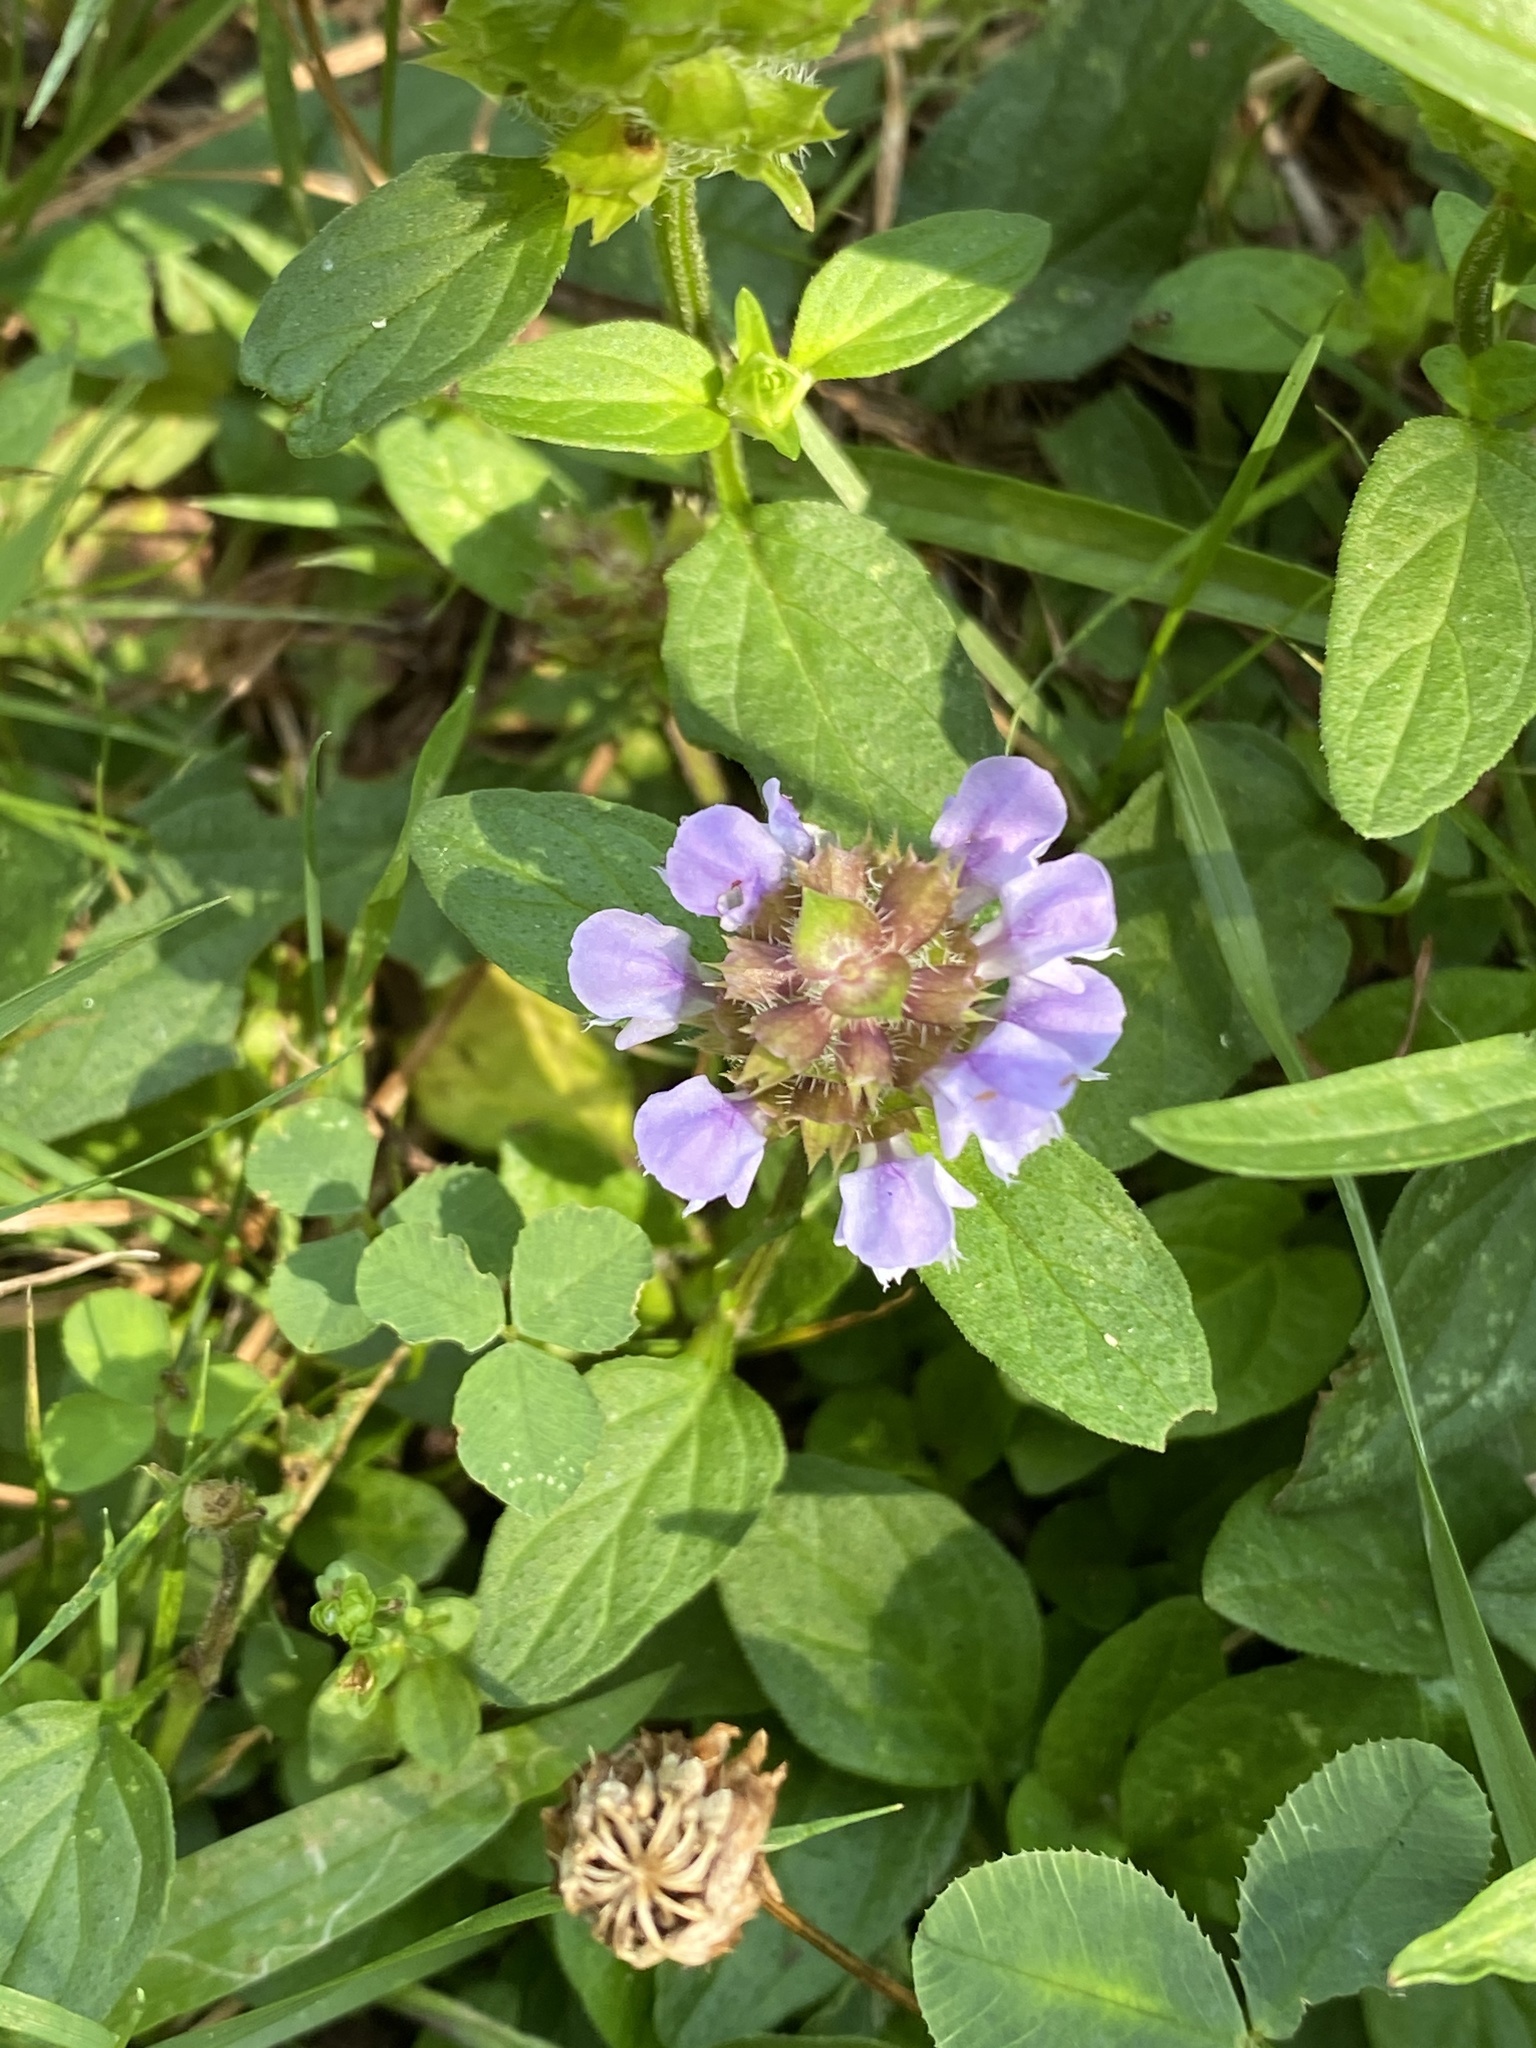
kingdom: Plantae
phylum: Tracheophyta
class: Magnoliopsida
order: Lamiales
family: Lamiaceae
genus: Prunella
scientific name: Prunella vulgaris
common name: Heal-all
